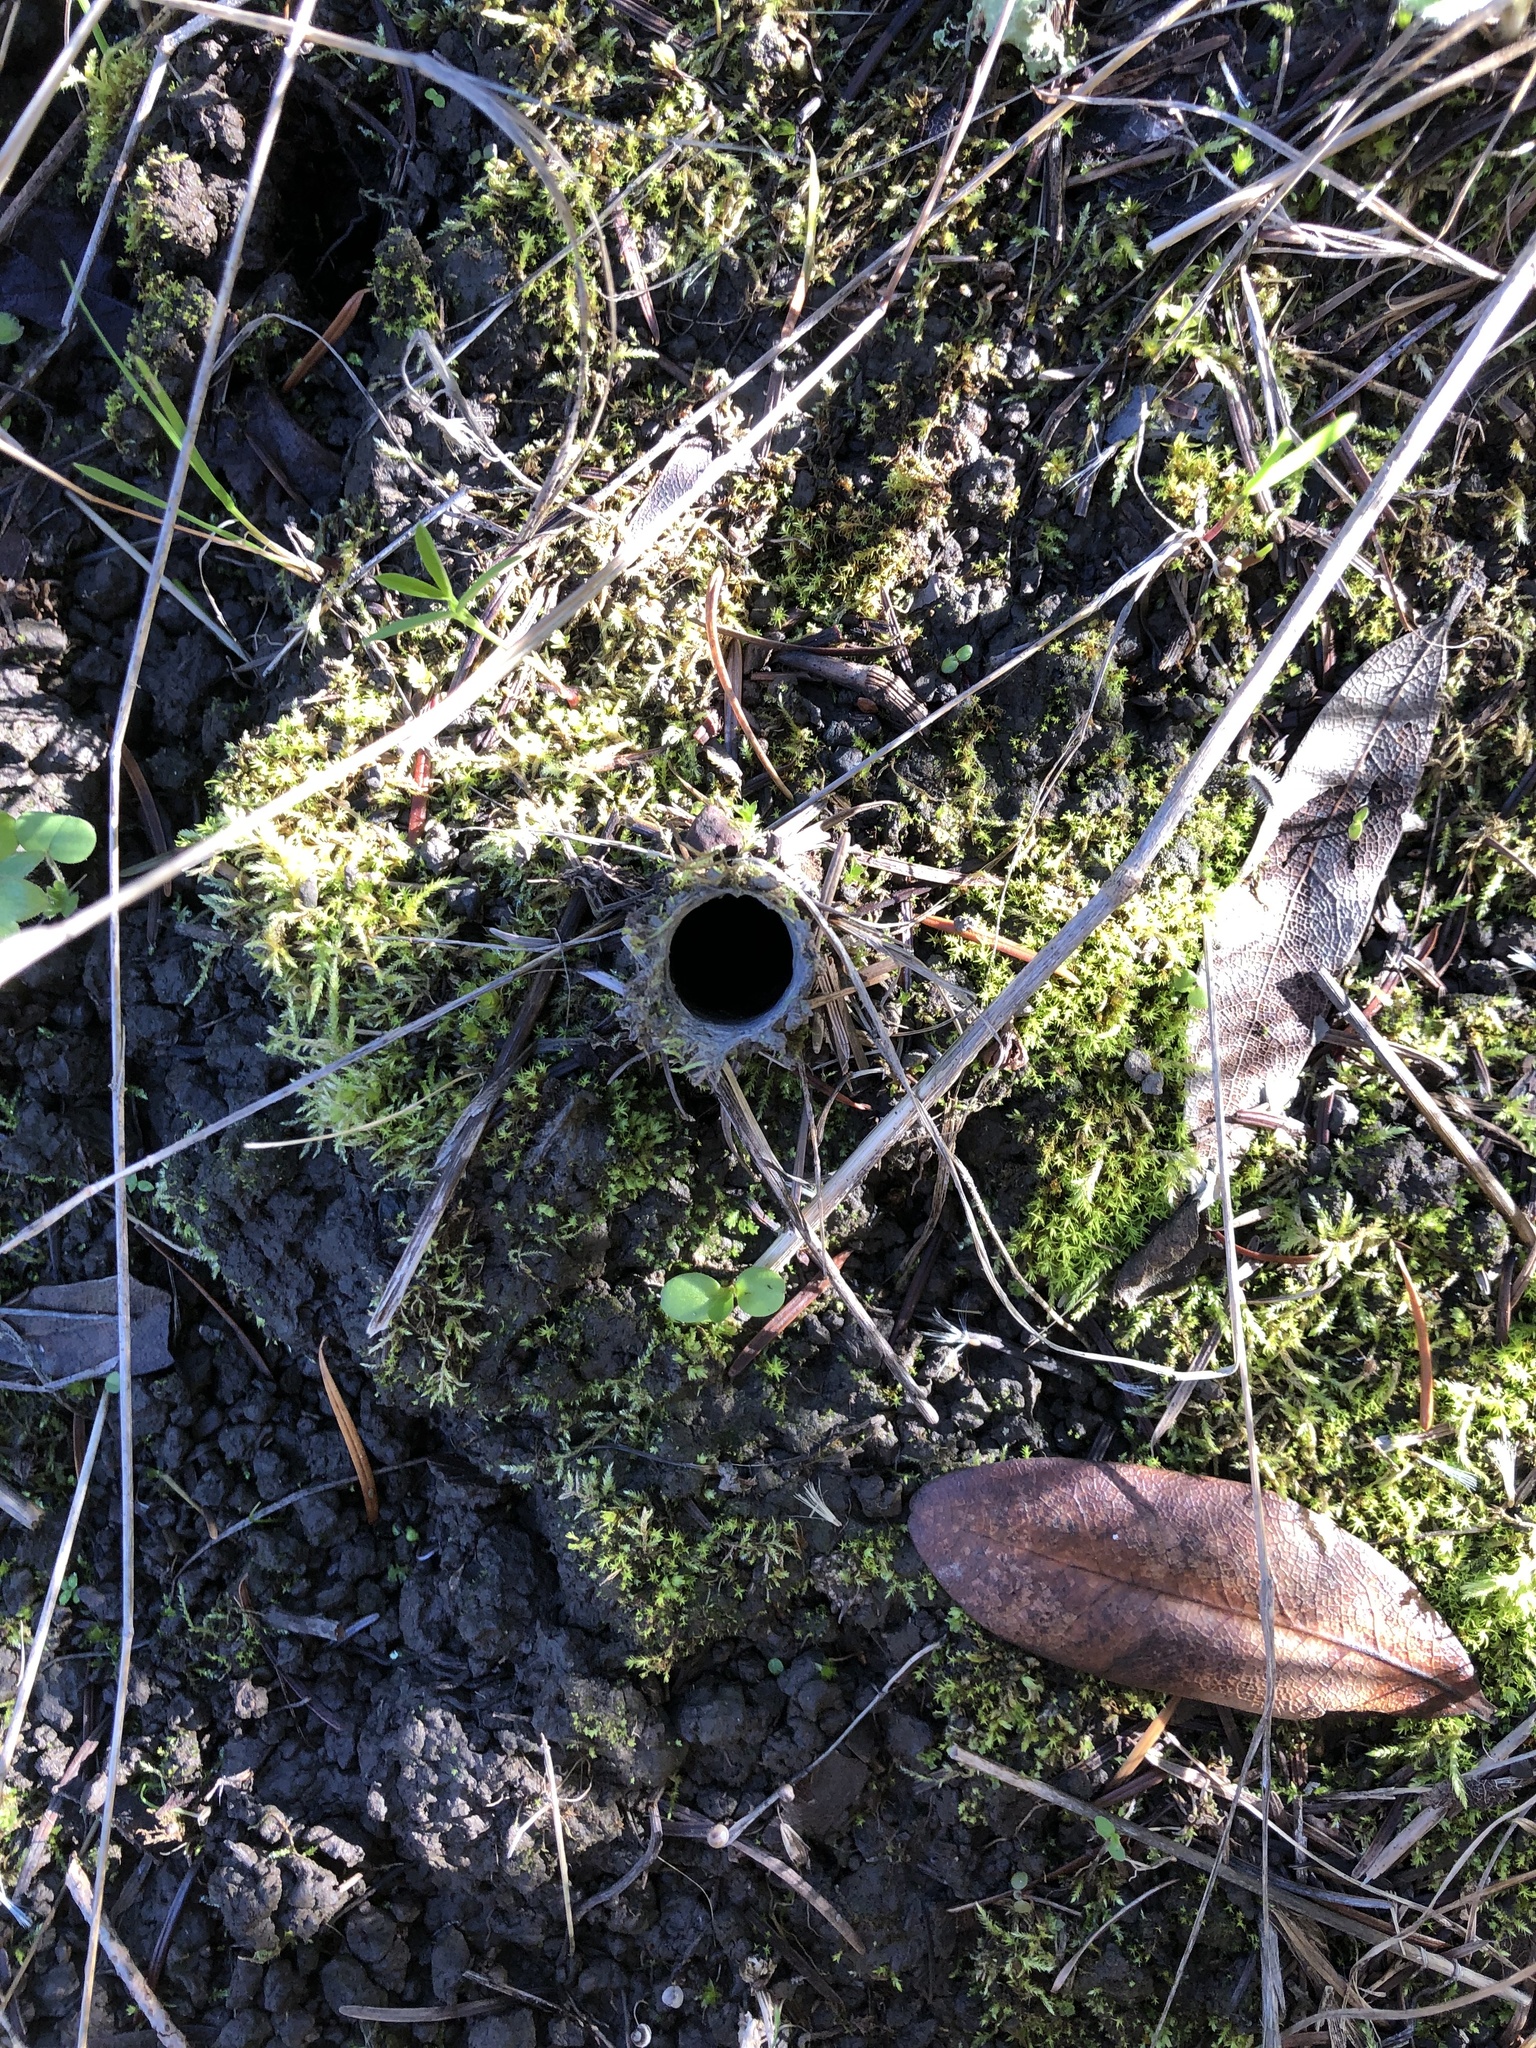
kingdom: Animalia
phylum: Arthropoda
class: Arachnida
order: Araneae
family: Antrodiaetidae
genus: Atypoides
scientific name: Atypoides riversi
